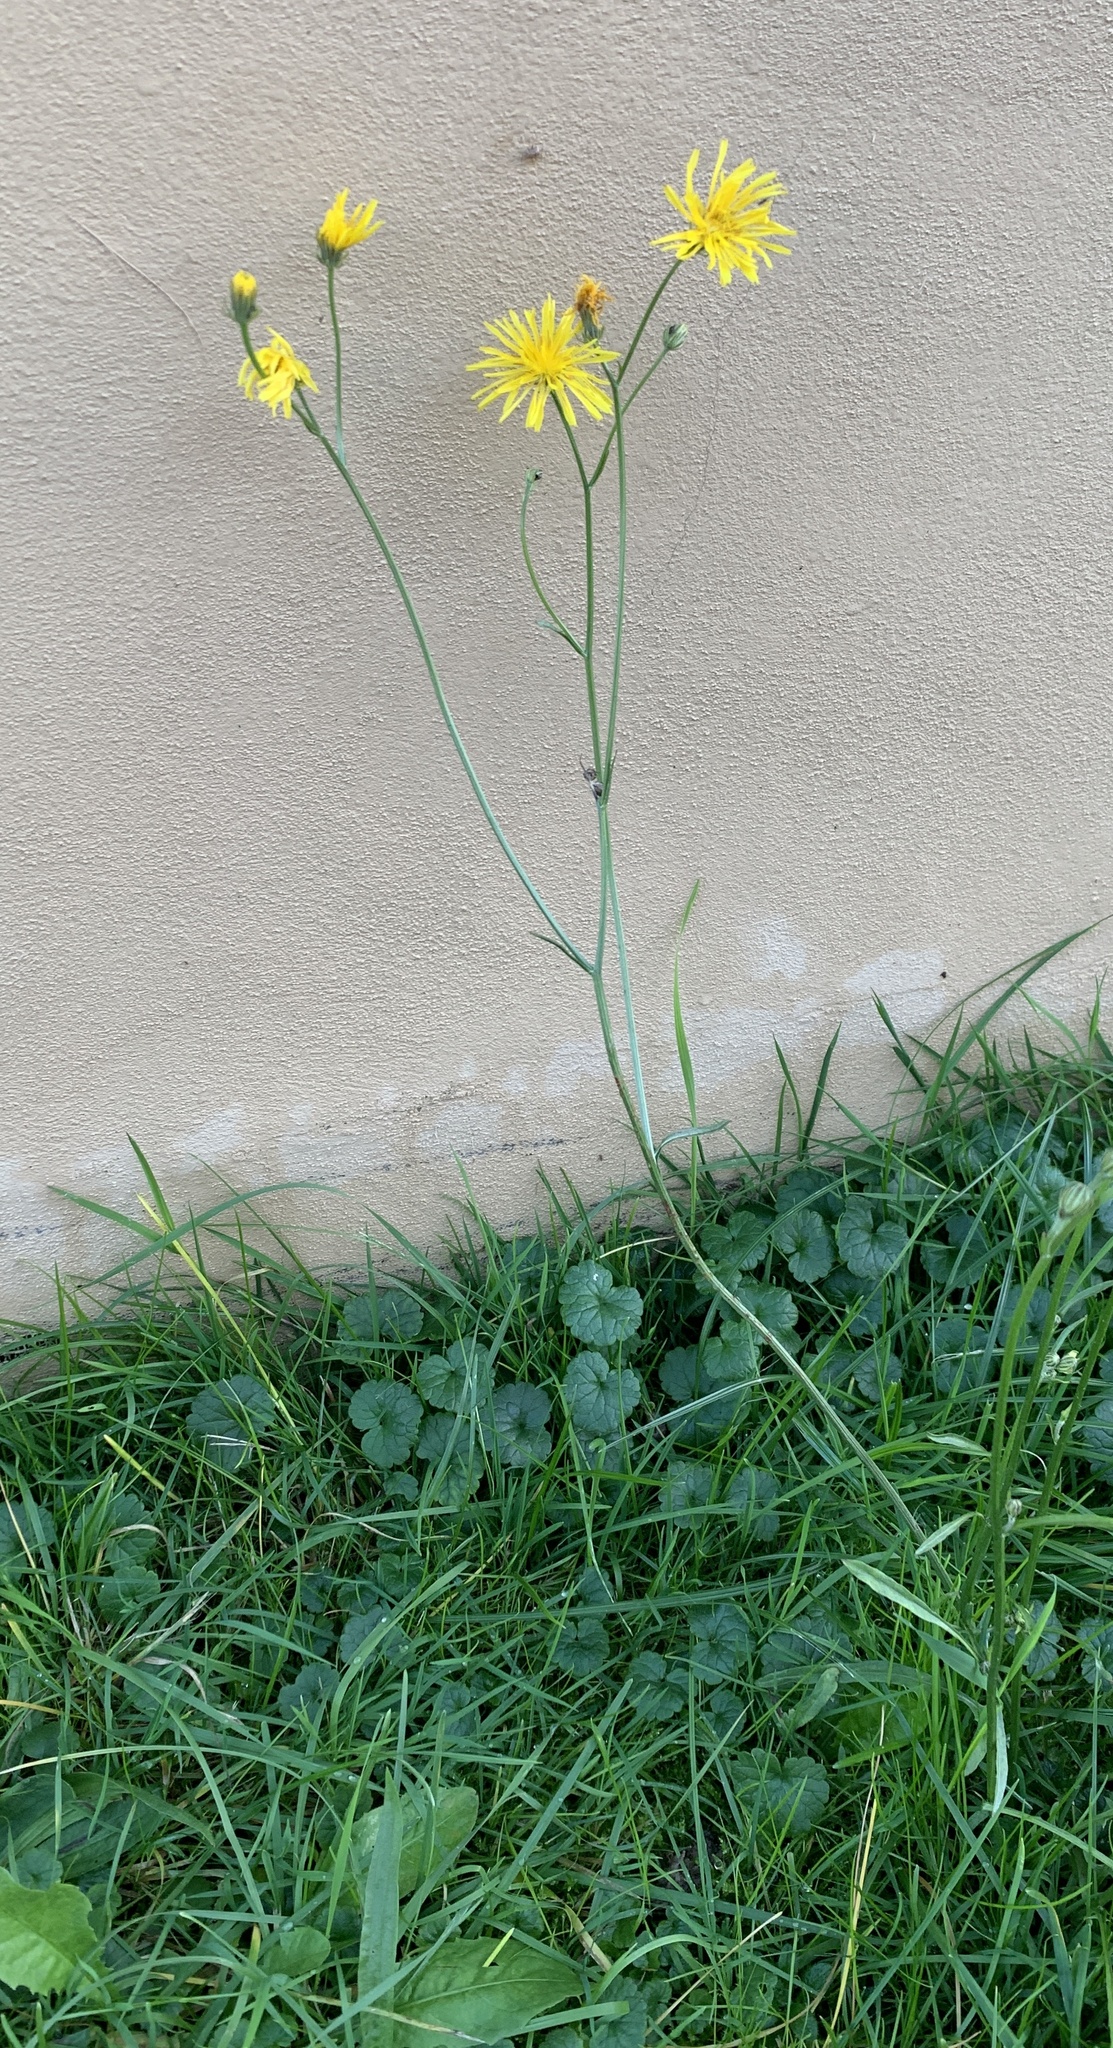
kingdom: Plantae
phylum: Tracheophyta
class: Magnoliopsida
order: Asterales
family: Asteraceae
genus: Crepis
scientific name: Crepis biennis
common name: Rough hawk's-beard
